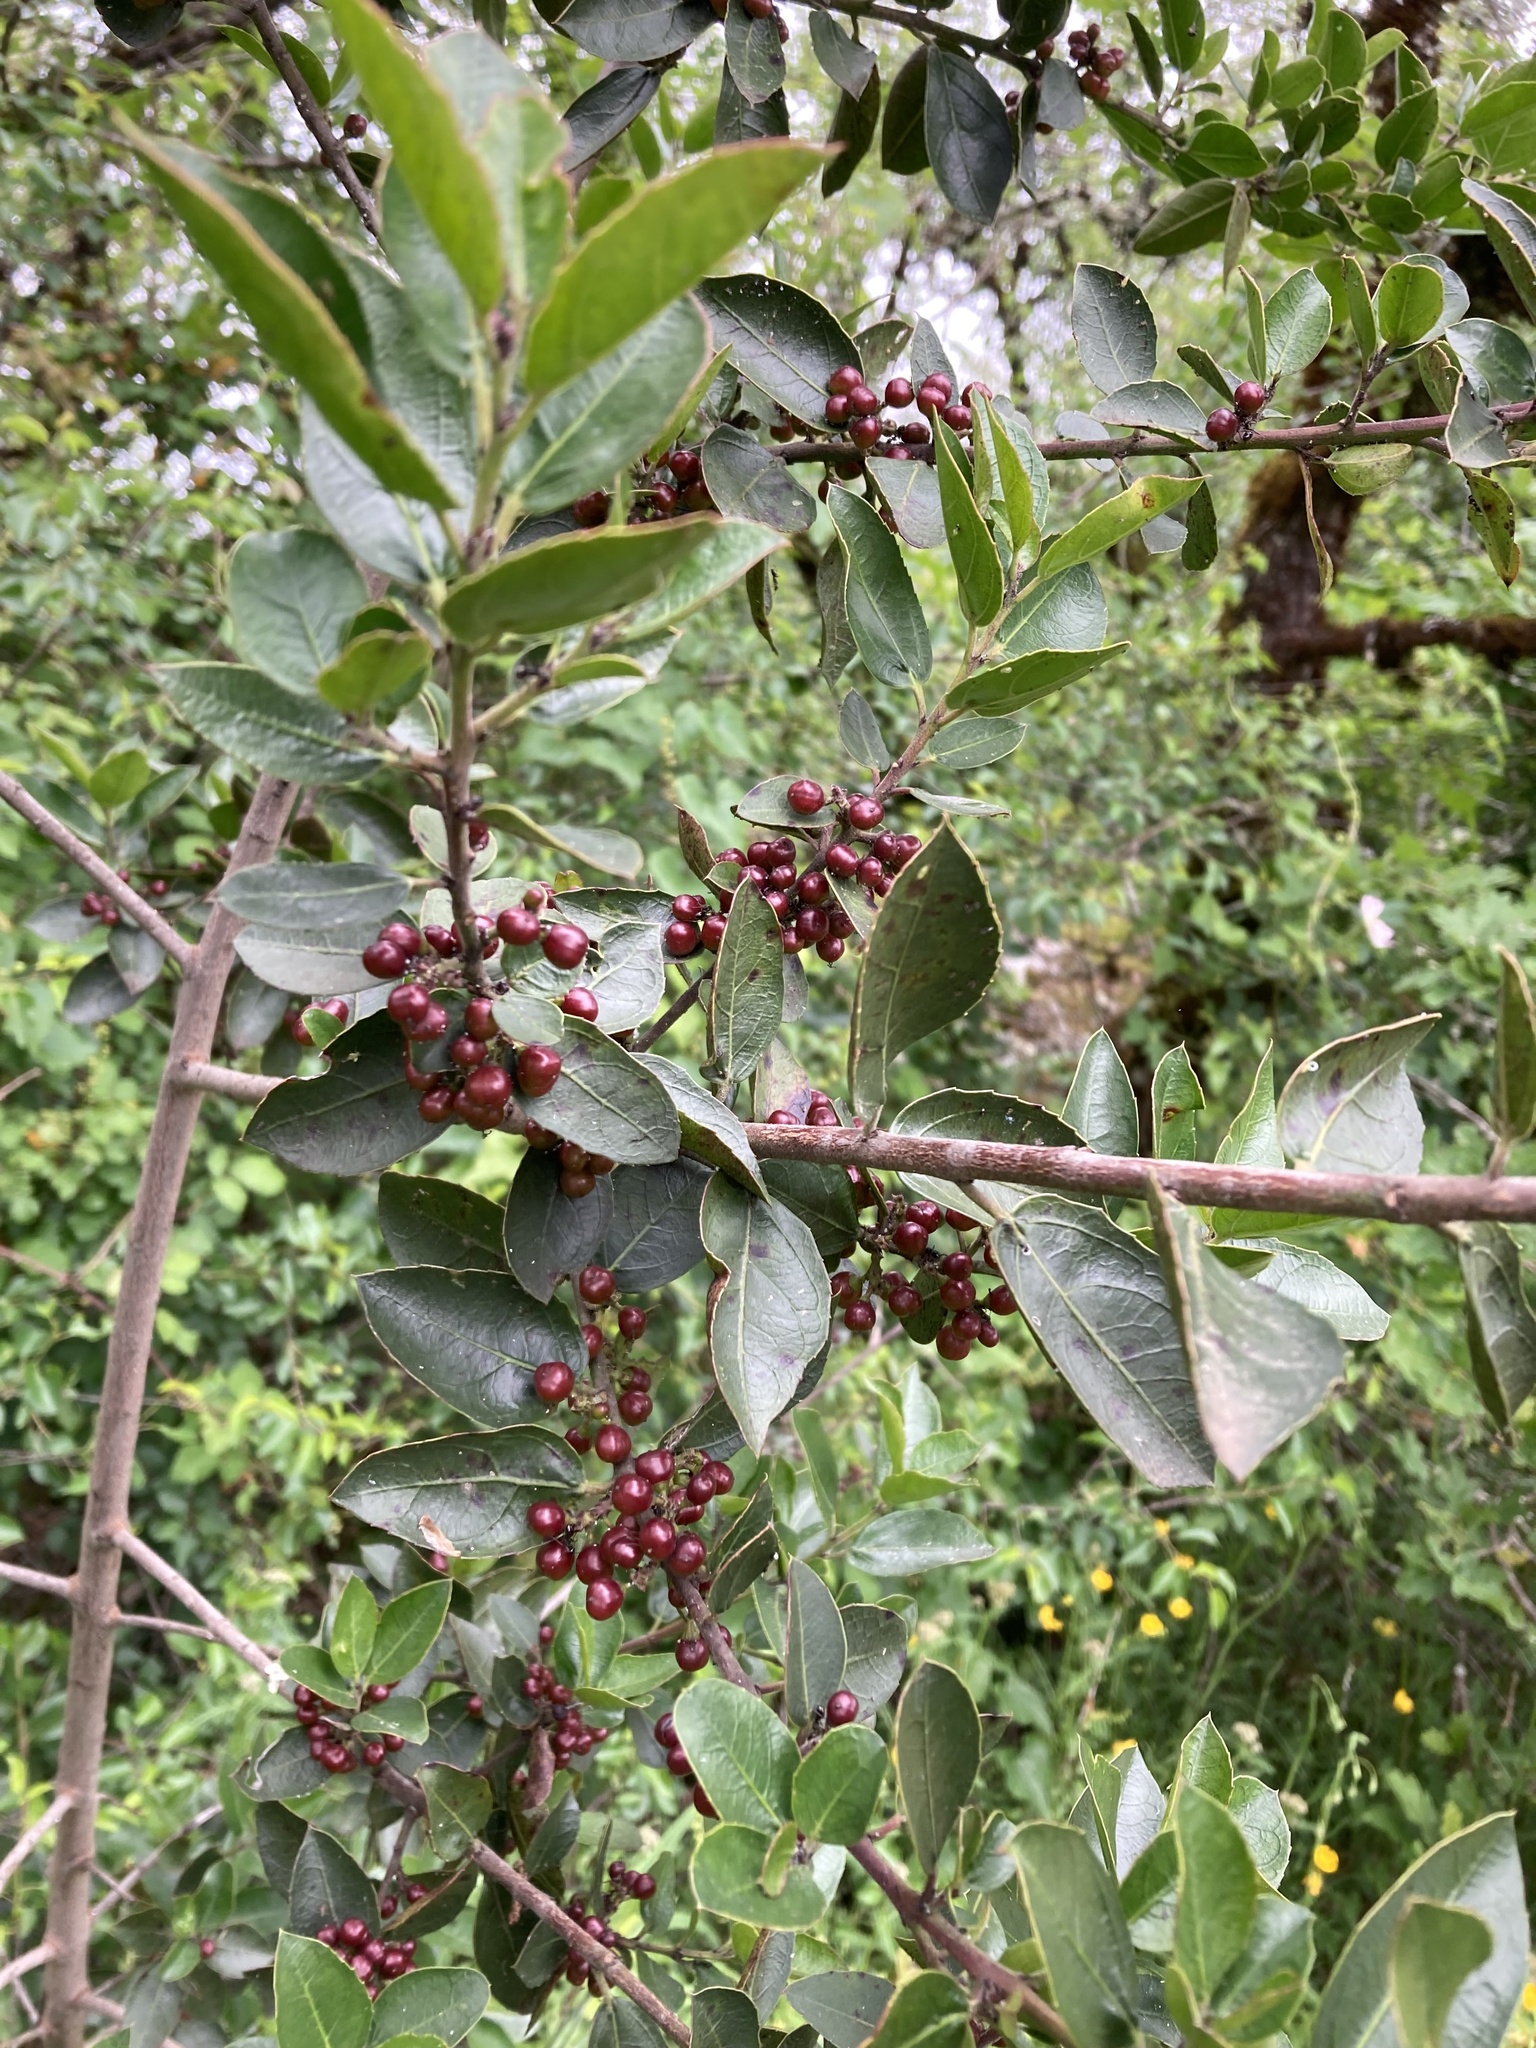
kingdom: Plantae
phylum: Tracheophyta
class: Magnoliopsida
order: Rosales
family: Rhamnaceae
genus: Rhamnus
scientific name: Rhamnus alaternus
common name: Mediterranean buckthorn
